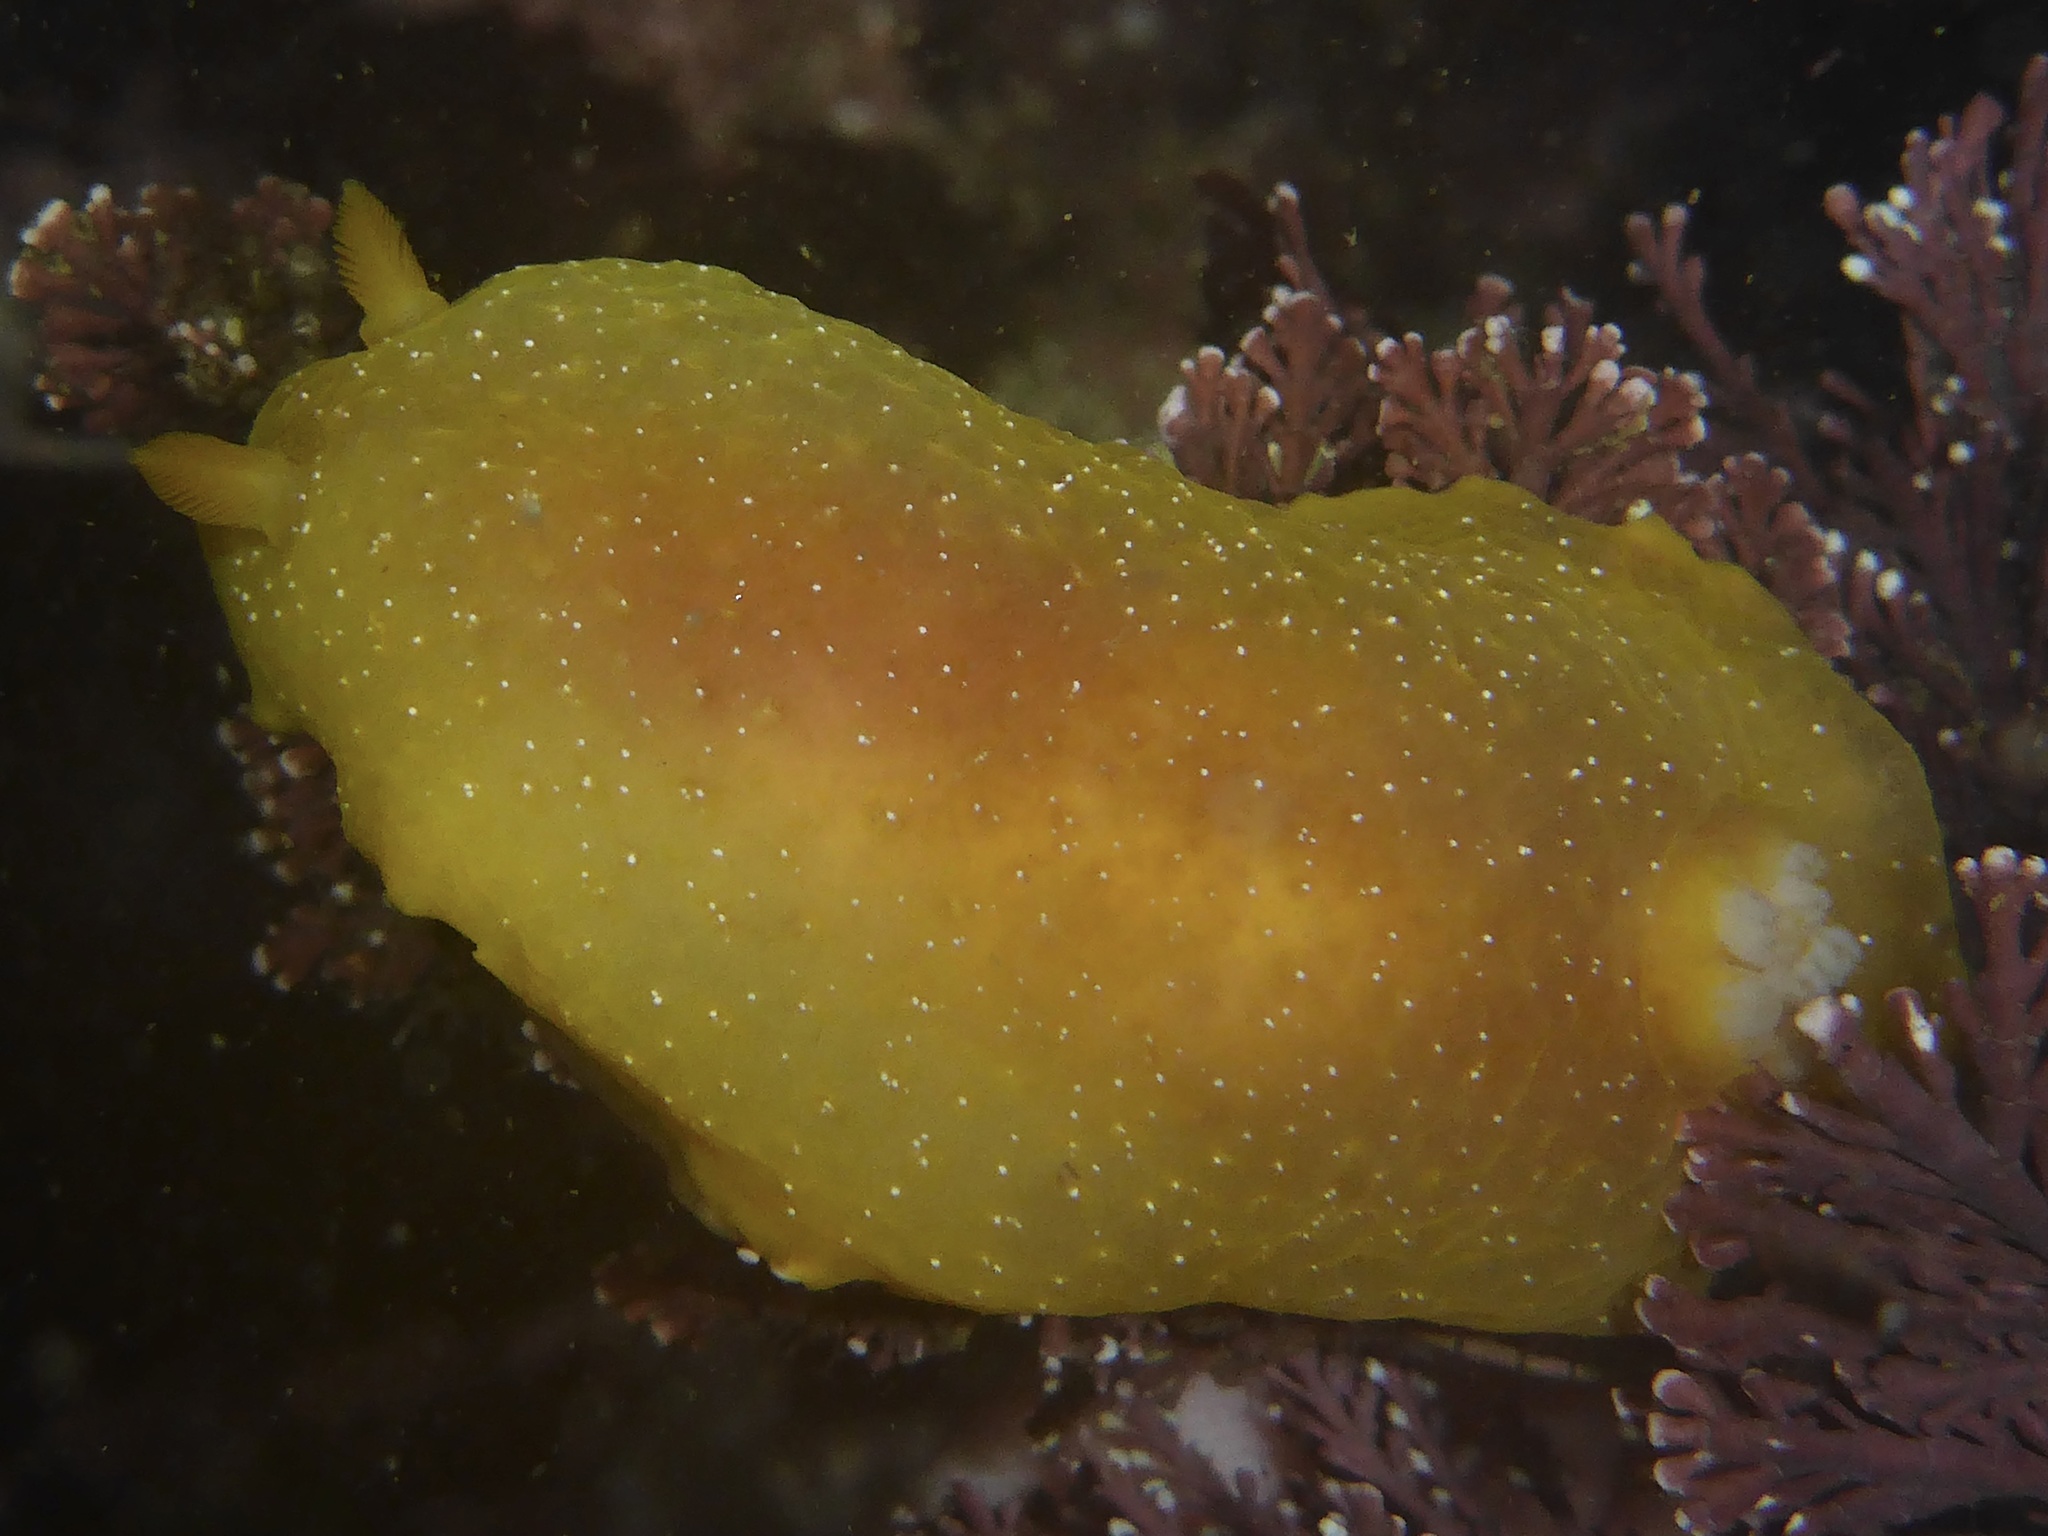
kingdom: Animalia
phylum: Mollusca
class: Gastropoda
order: Nudibranchia
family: Dendrodorididae
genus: Doriopsilla
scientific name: Doriopsilla fulva
